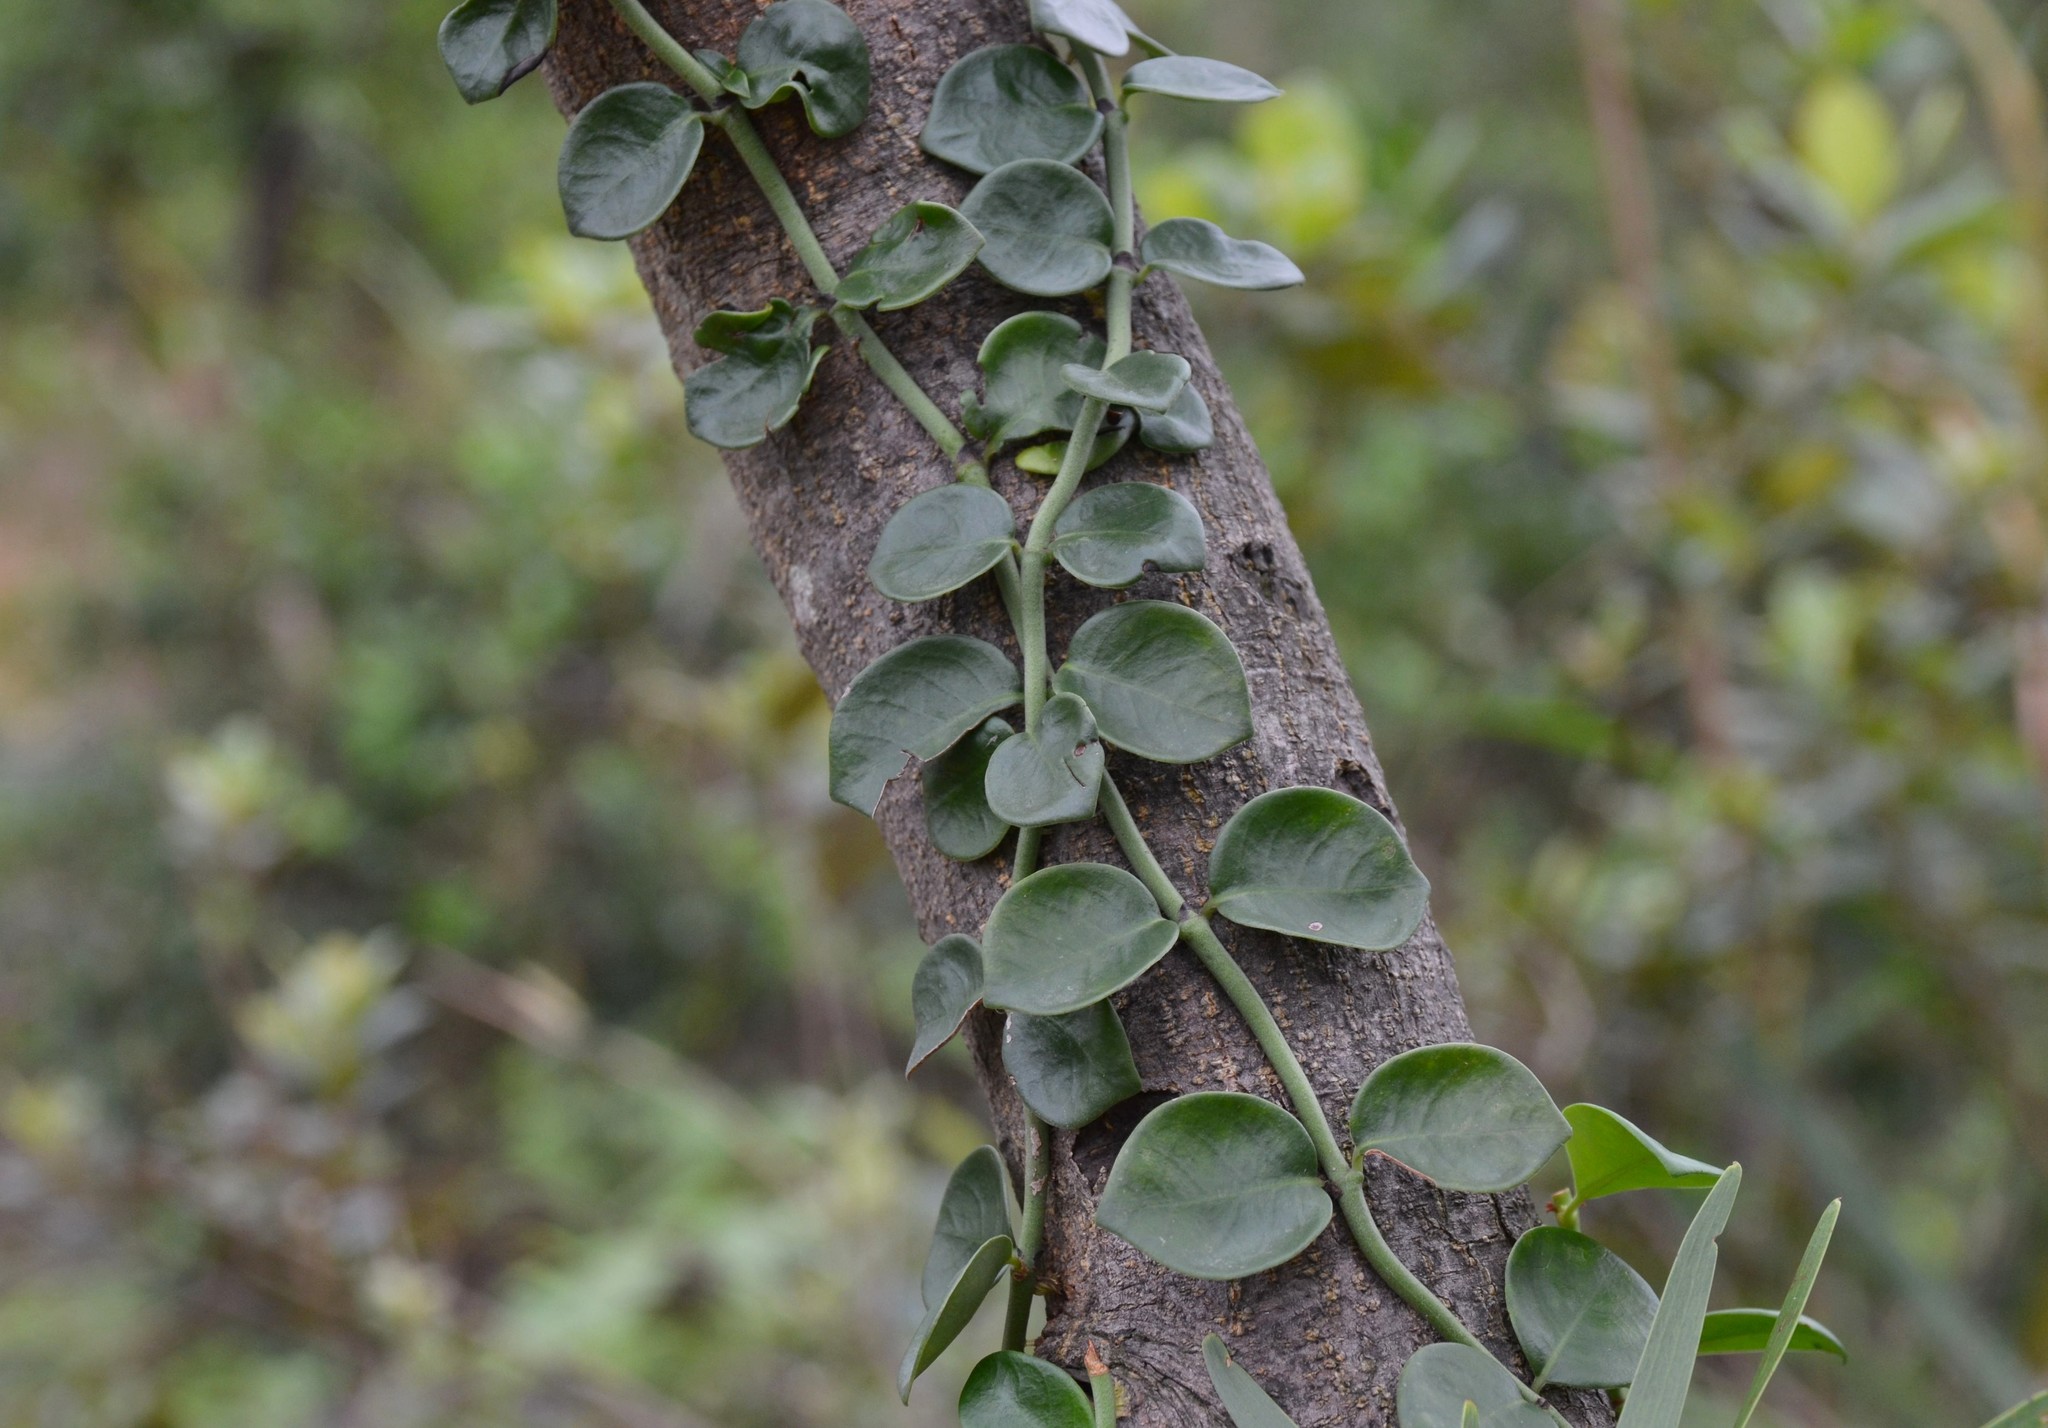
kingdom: Plantae
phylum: Tracheophyta
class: Magnoliopsida
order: Gentianales
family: Rubiaceae
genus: Psychotria
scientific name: Psychotria serpens
